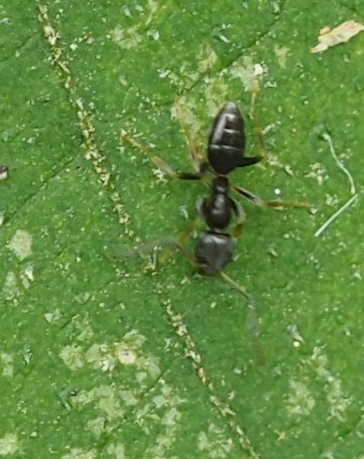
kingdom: Animalia
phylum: Arthropoda
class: Insecta
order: Hymenoptera
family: Formicidae
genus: Tapinoma
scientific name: Tapinoma sessile
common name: Odorous house ant
